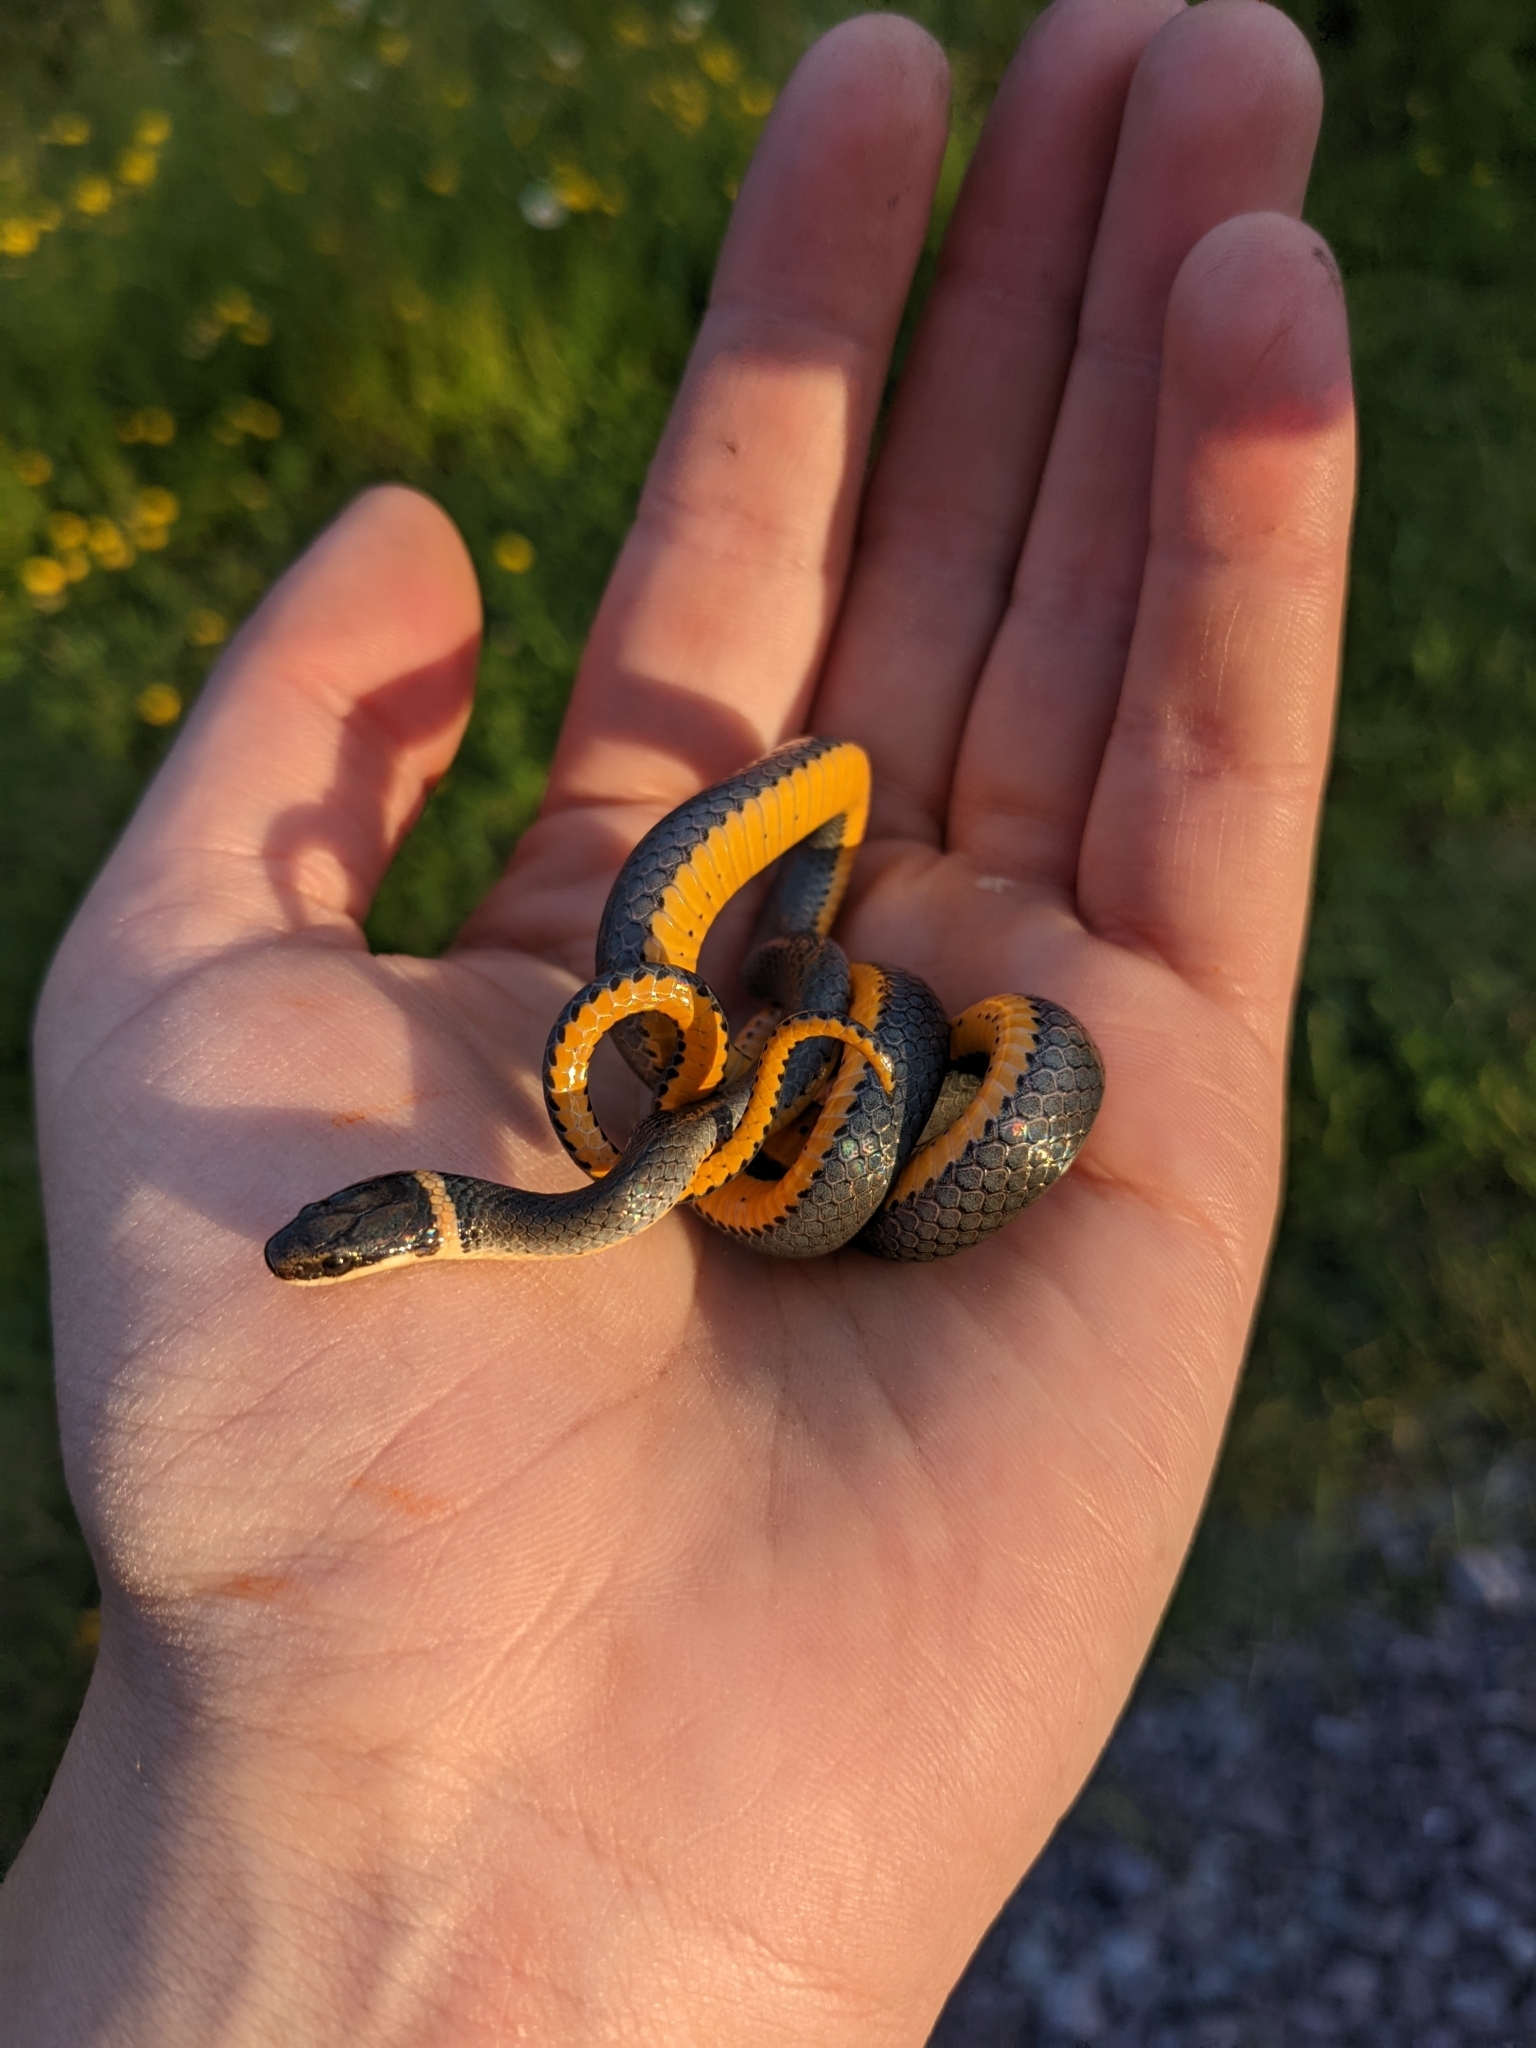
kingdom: Animalia
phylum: Chordata
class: Squamata
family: Colubridae
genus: Diadophis
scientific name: Diadophis punctatus
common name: Ringneck snake
